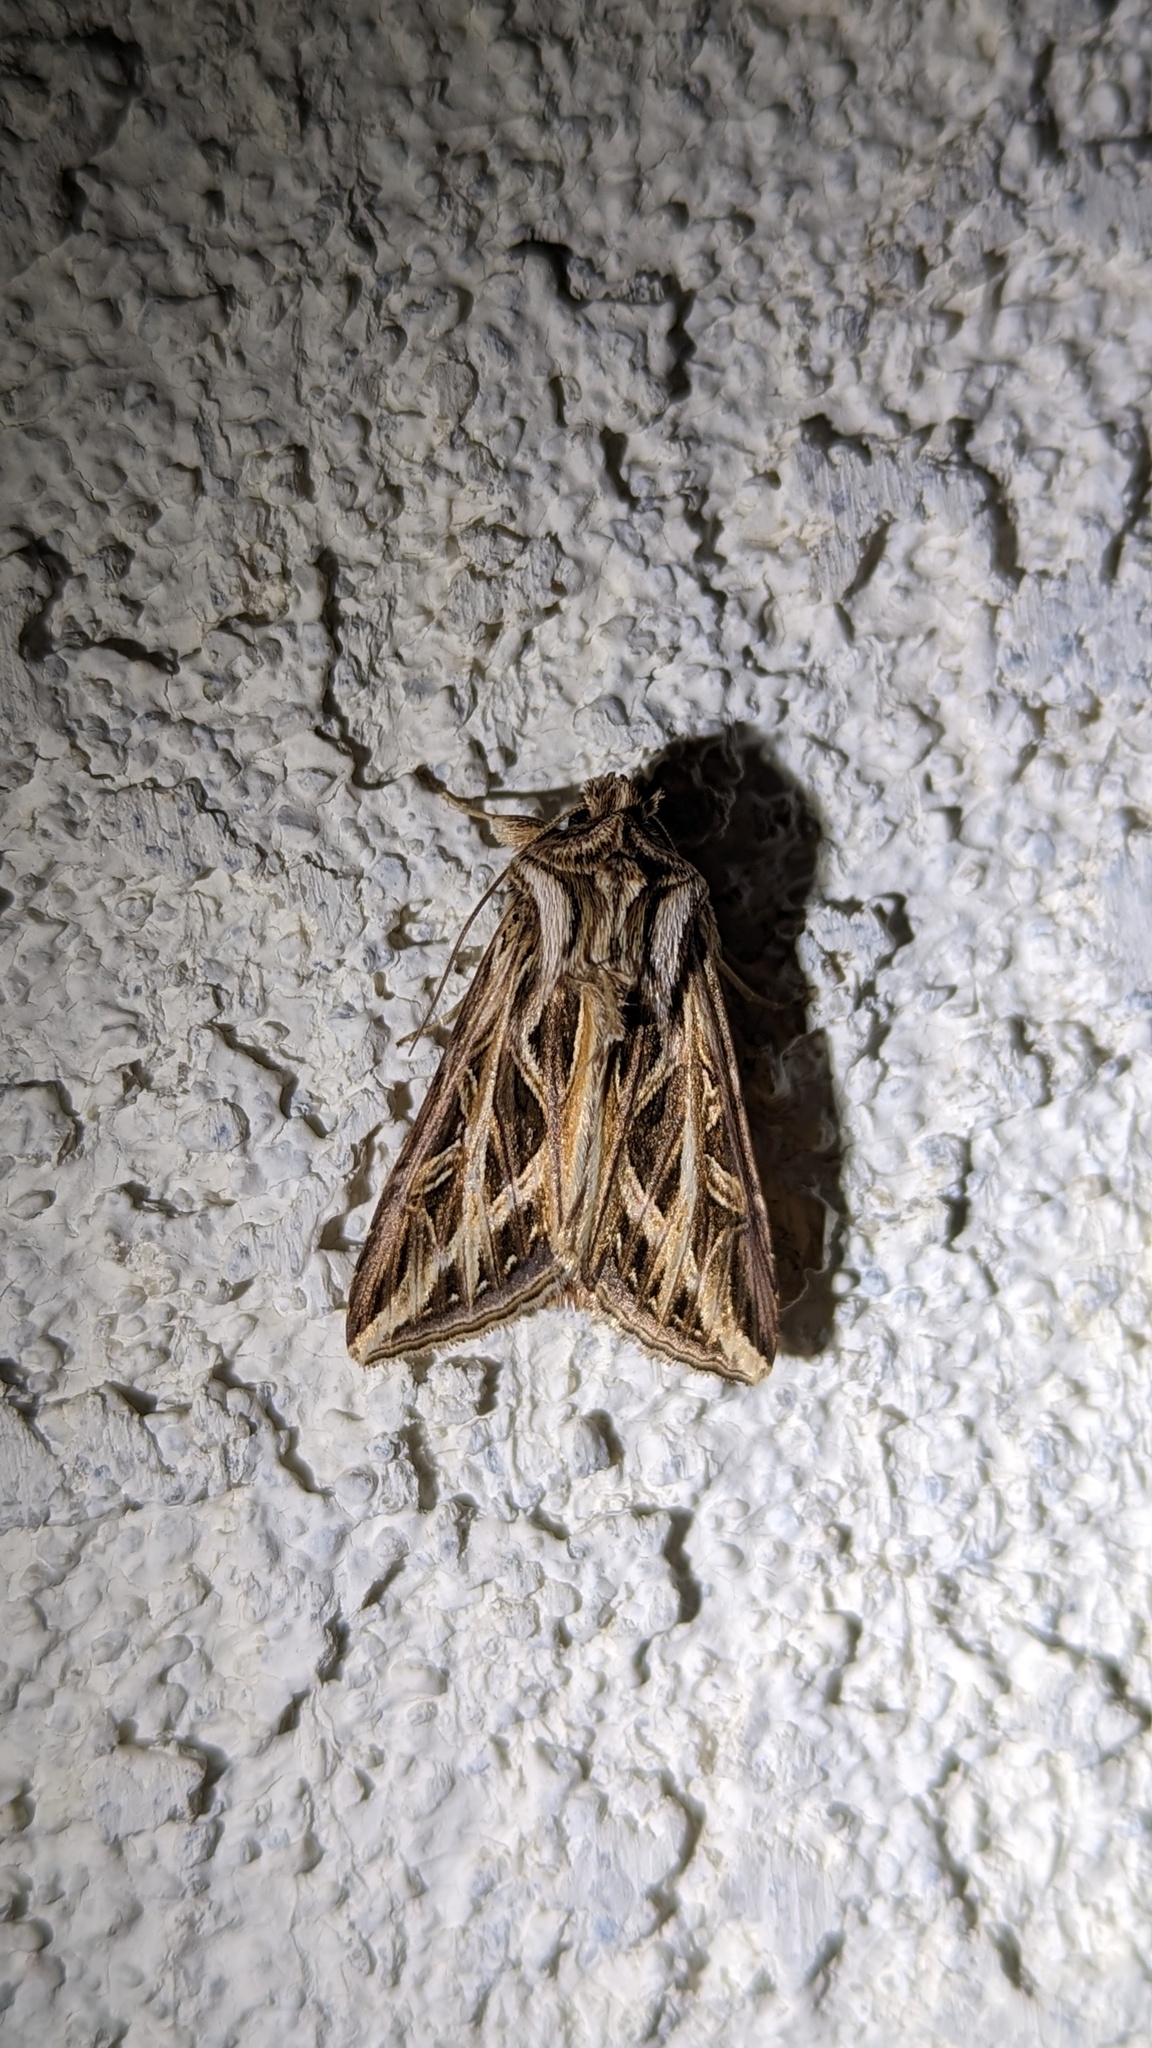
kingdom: Animalia
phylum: Arthropoda
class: Insecta
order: Lepidoptera
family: Noctuidae
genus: Dargida
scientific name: Dargida procinctus
